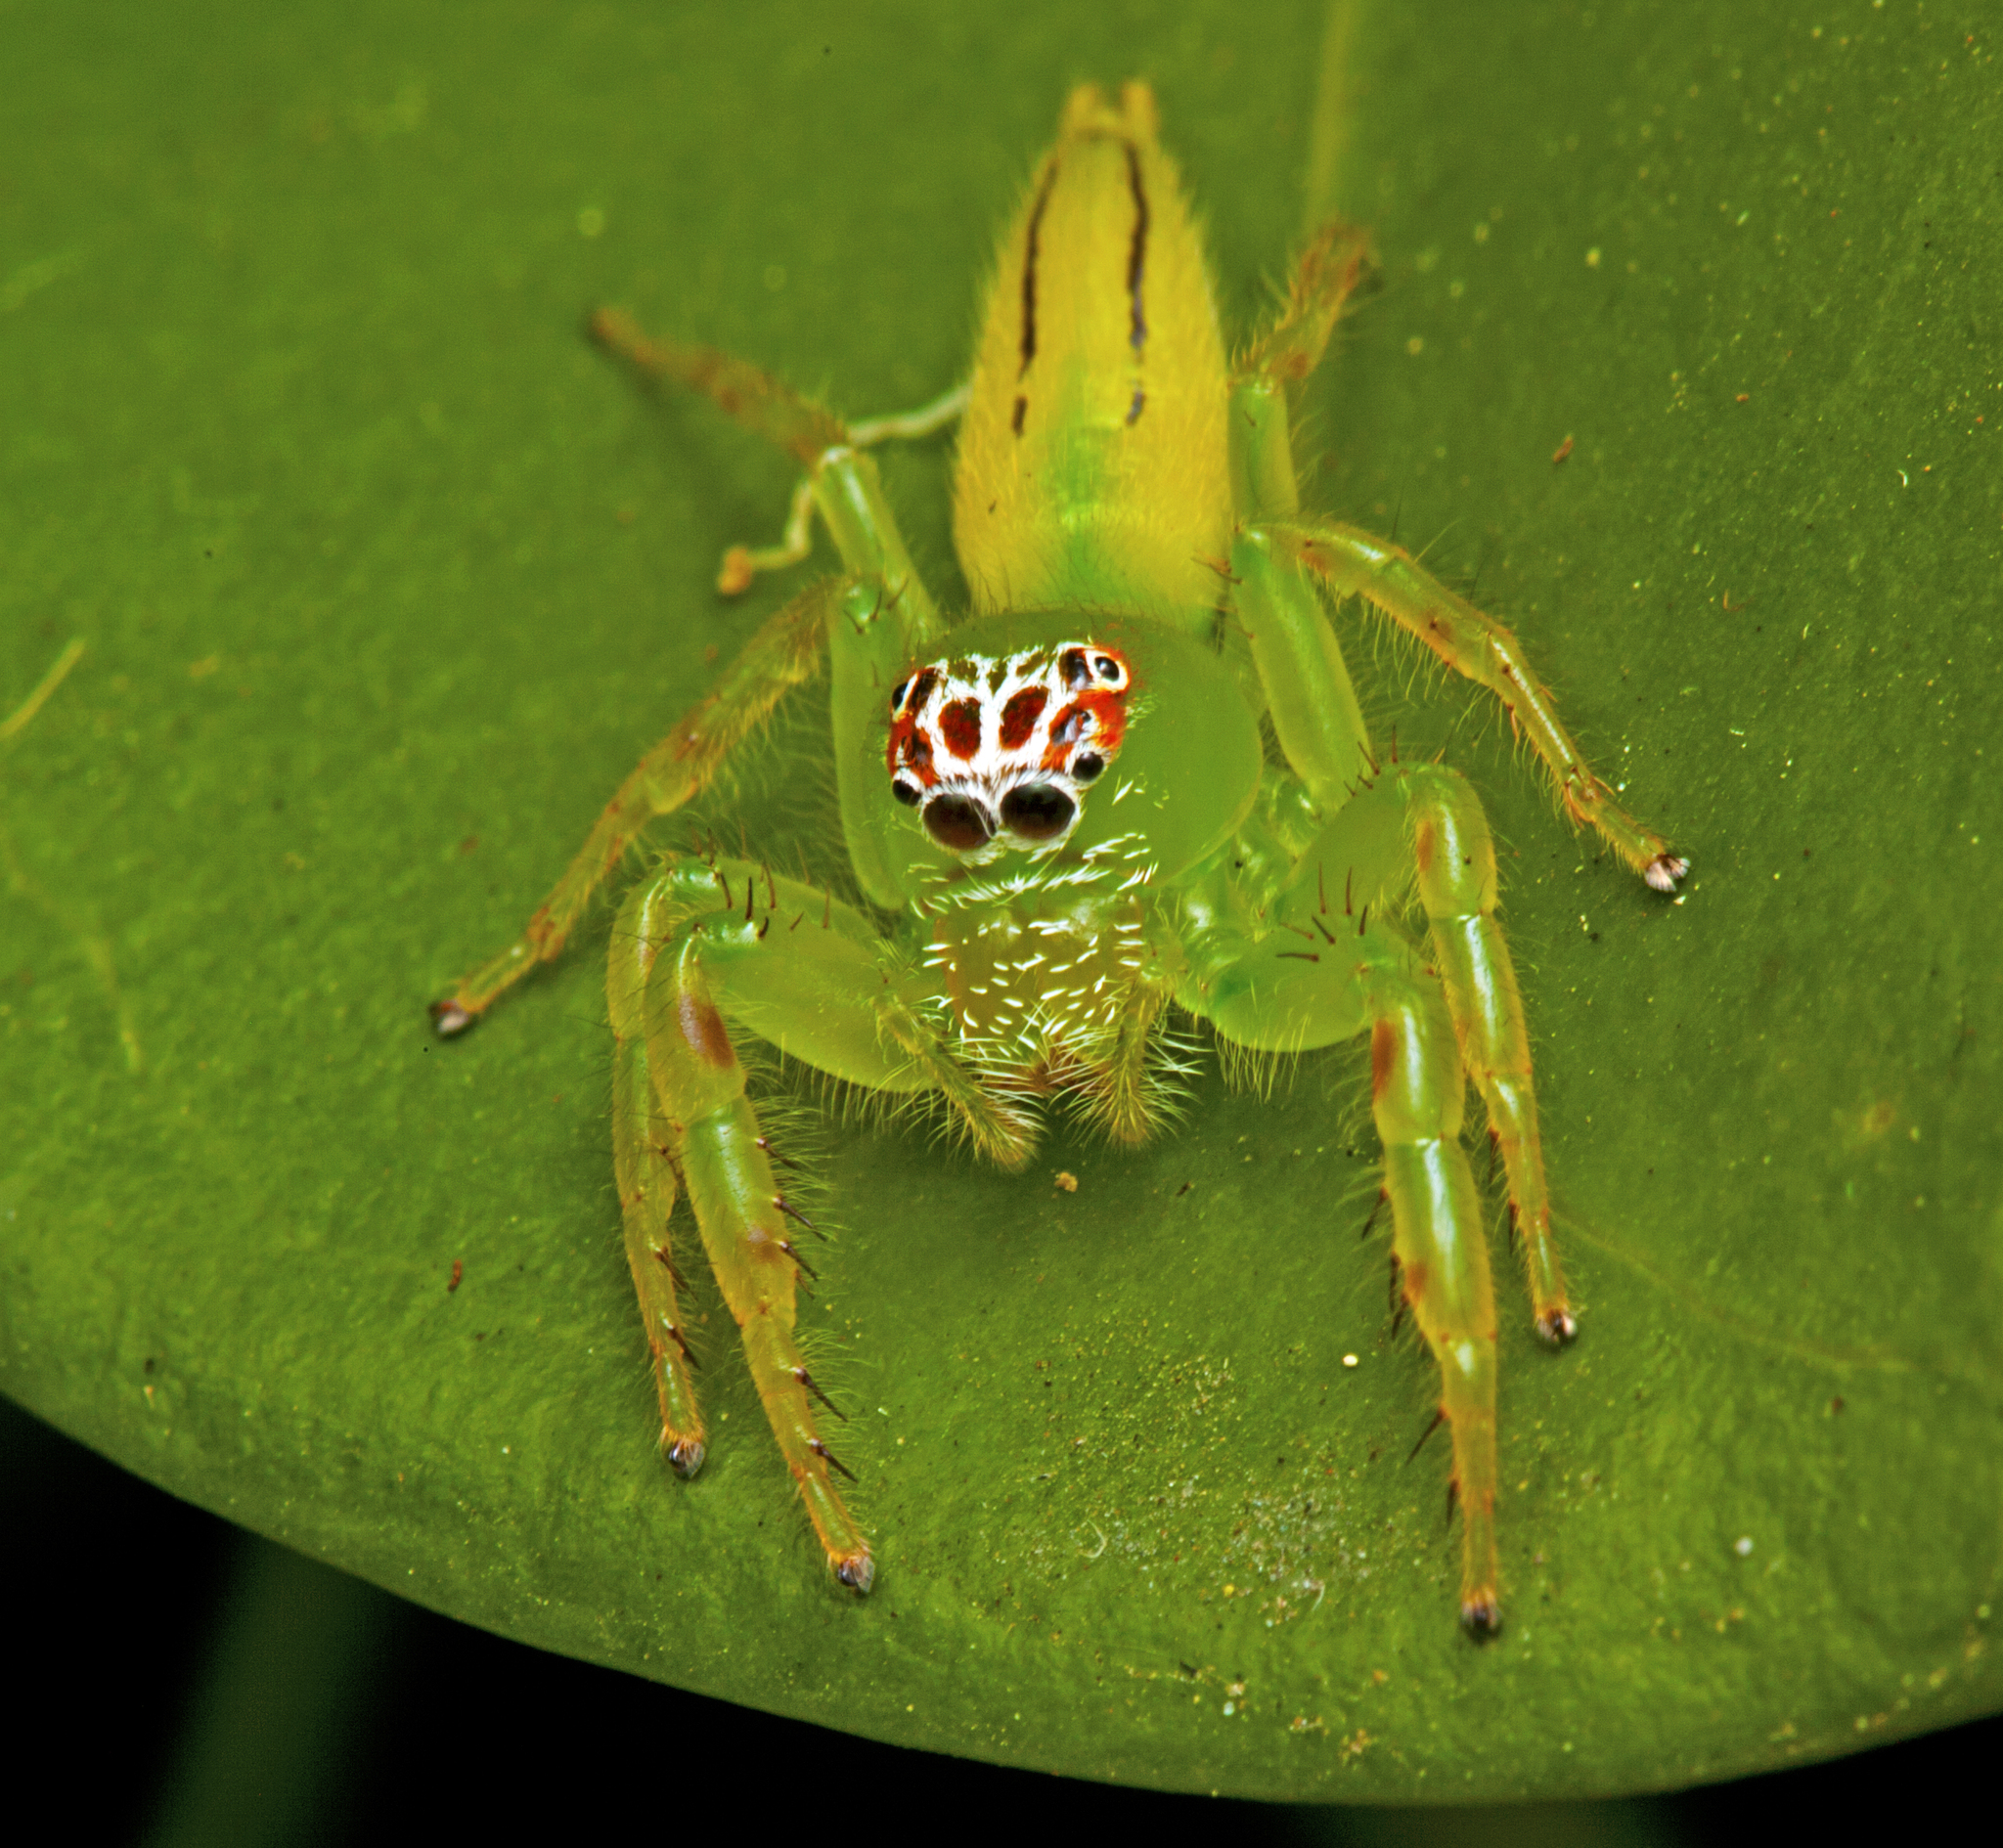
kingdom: Animalia
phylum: Arthropoda
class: Arachnida
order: Araneae
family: Salticidae
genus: Mopsus
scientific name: Mopsus mormon
